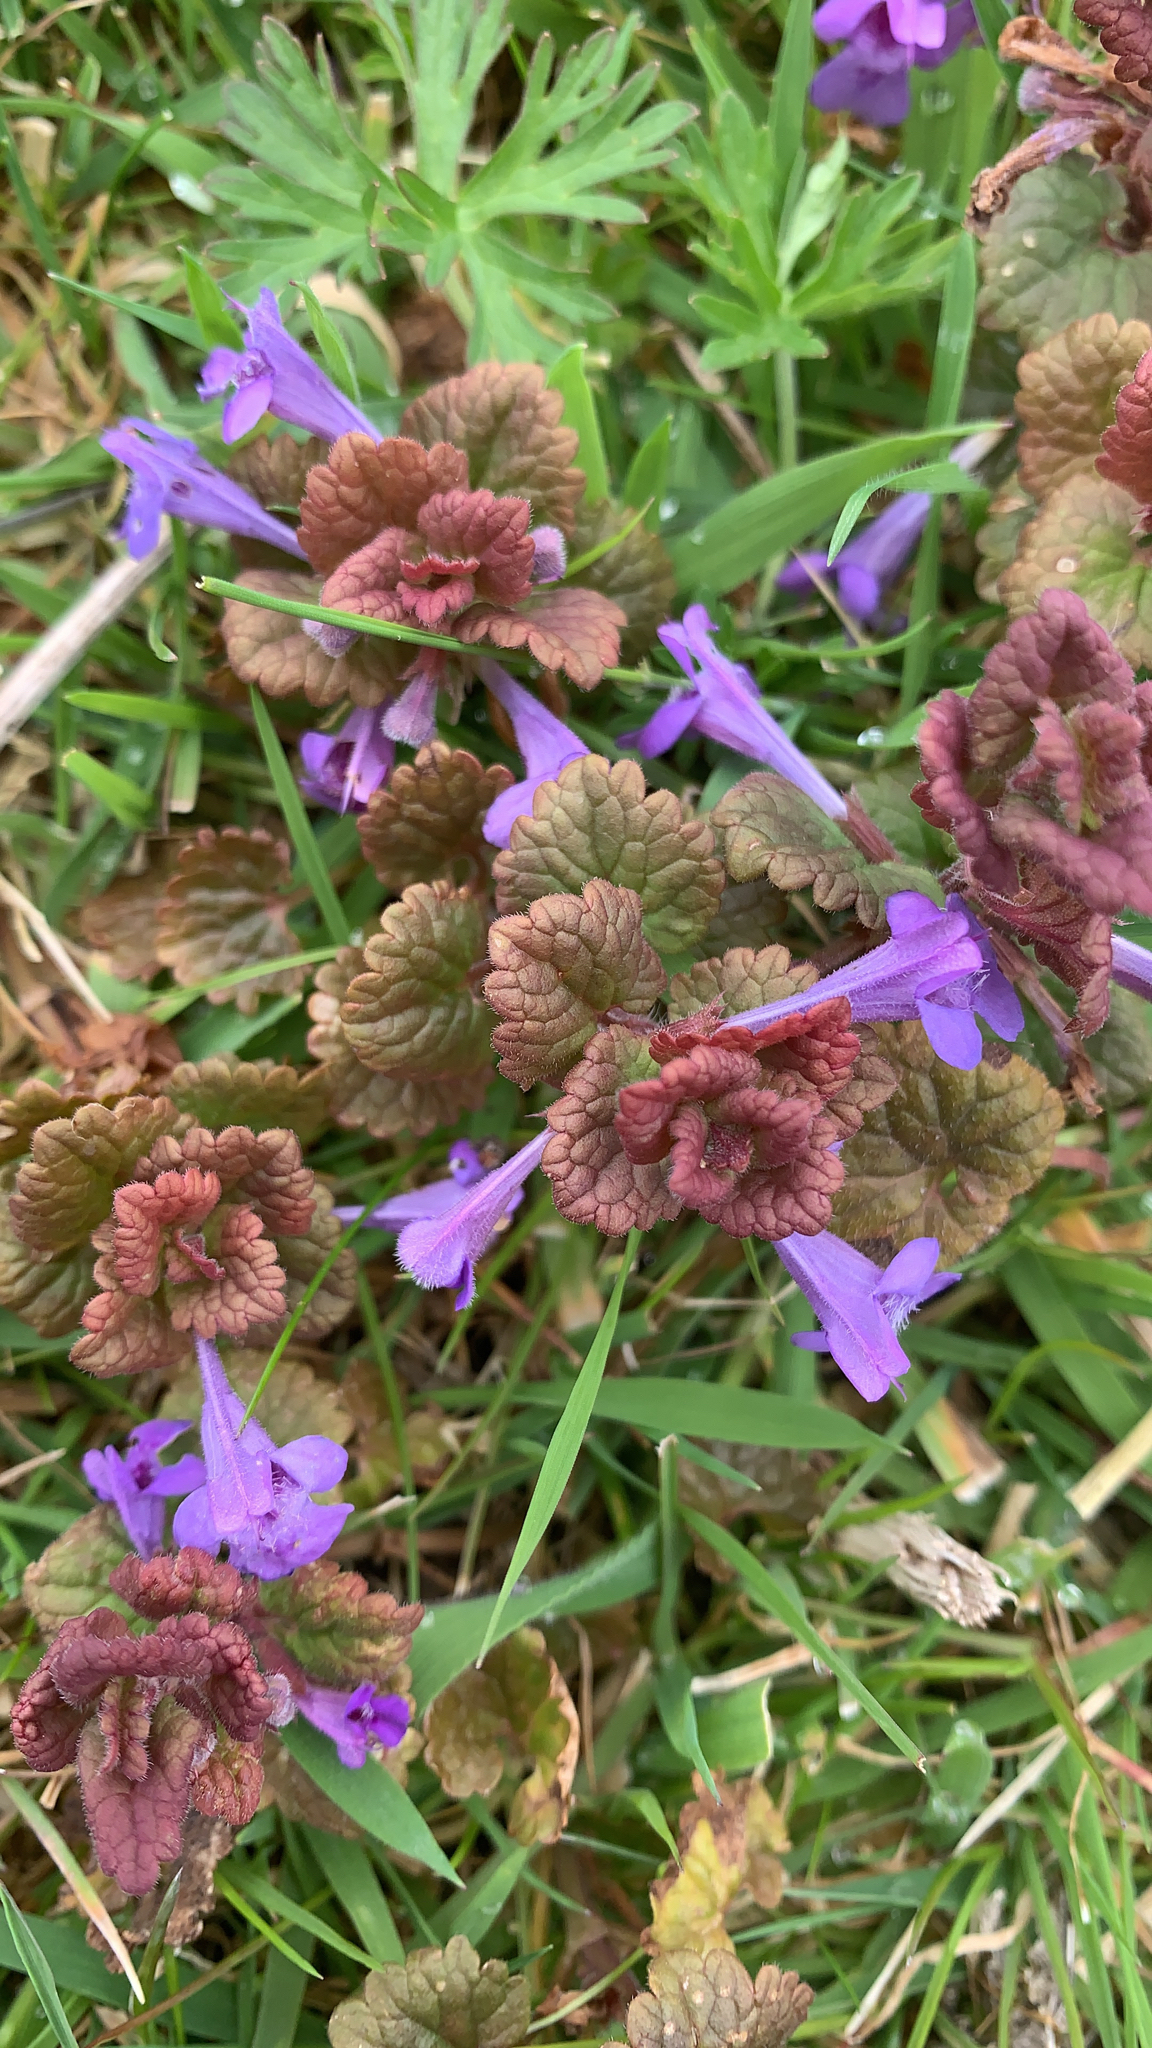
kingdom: Plantae
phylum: Tracheophyta
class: Magnoliopsida
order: Lamiales
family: Lamiaceae
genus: Glechoma
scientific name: Glechoma hederacea
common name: Ground ivy
